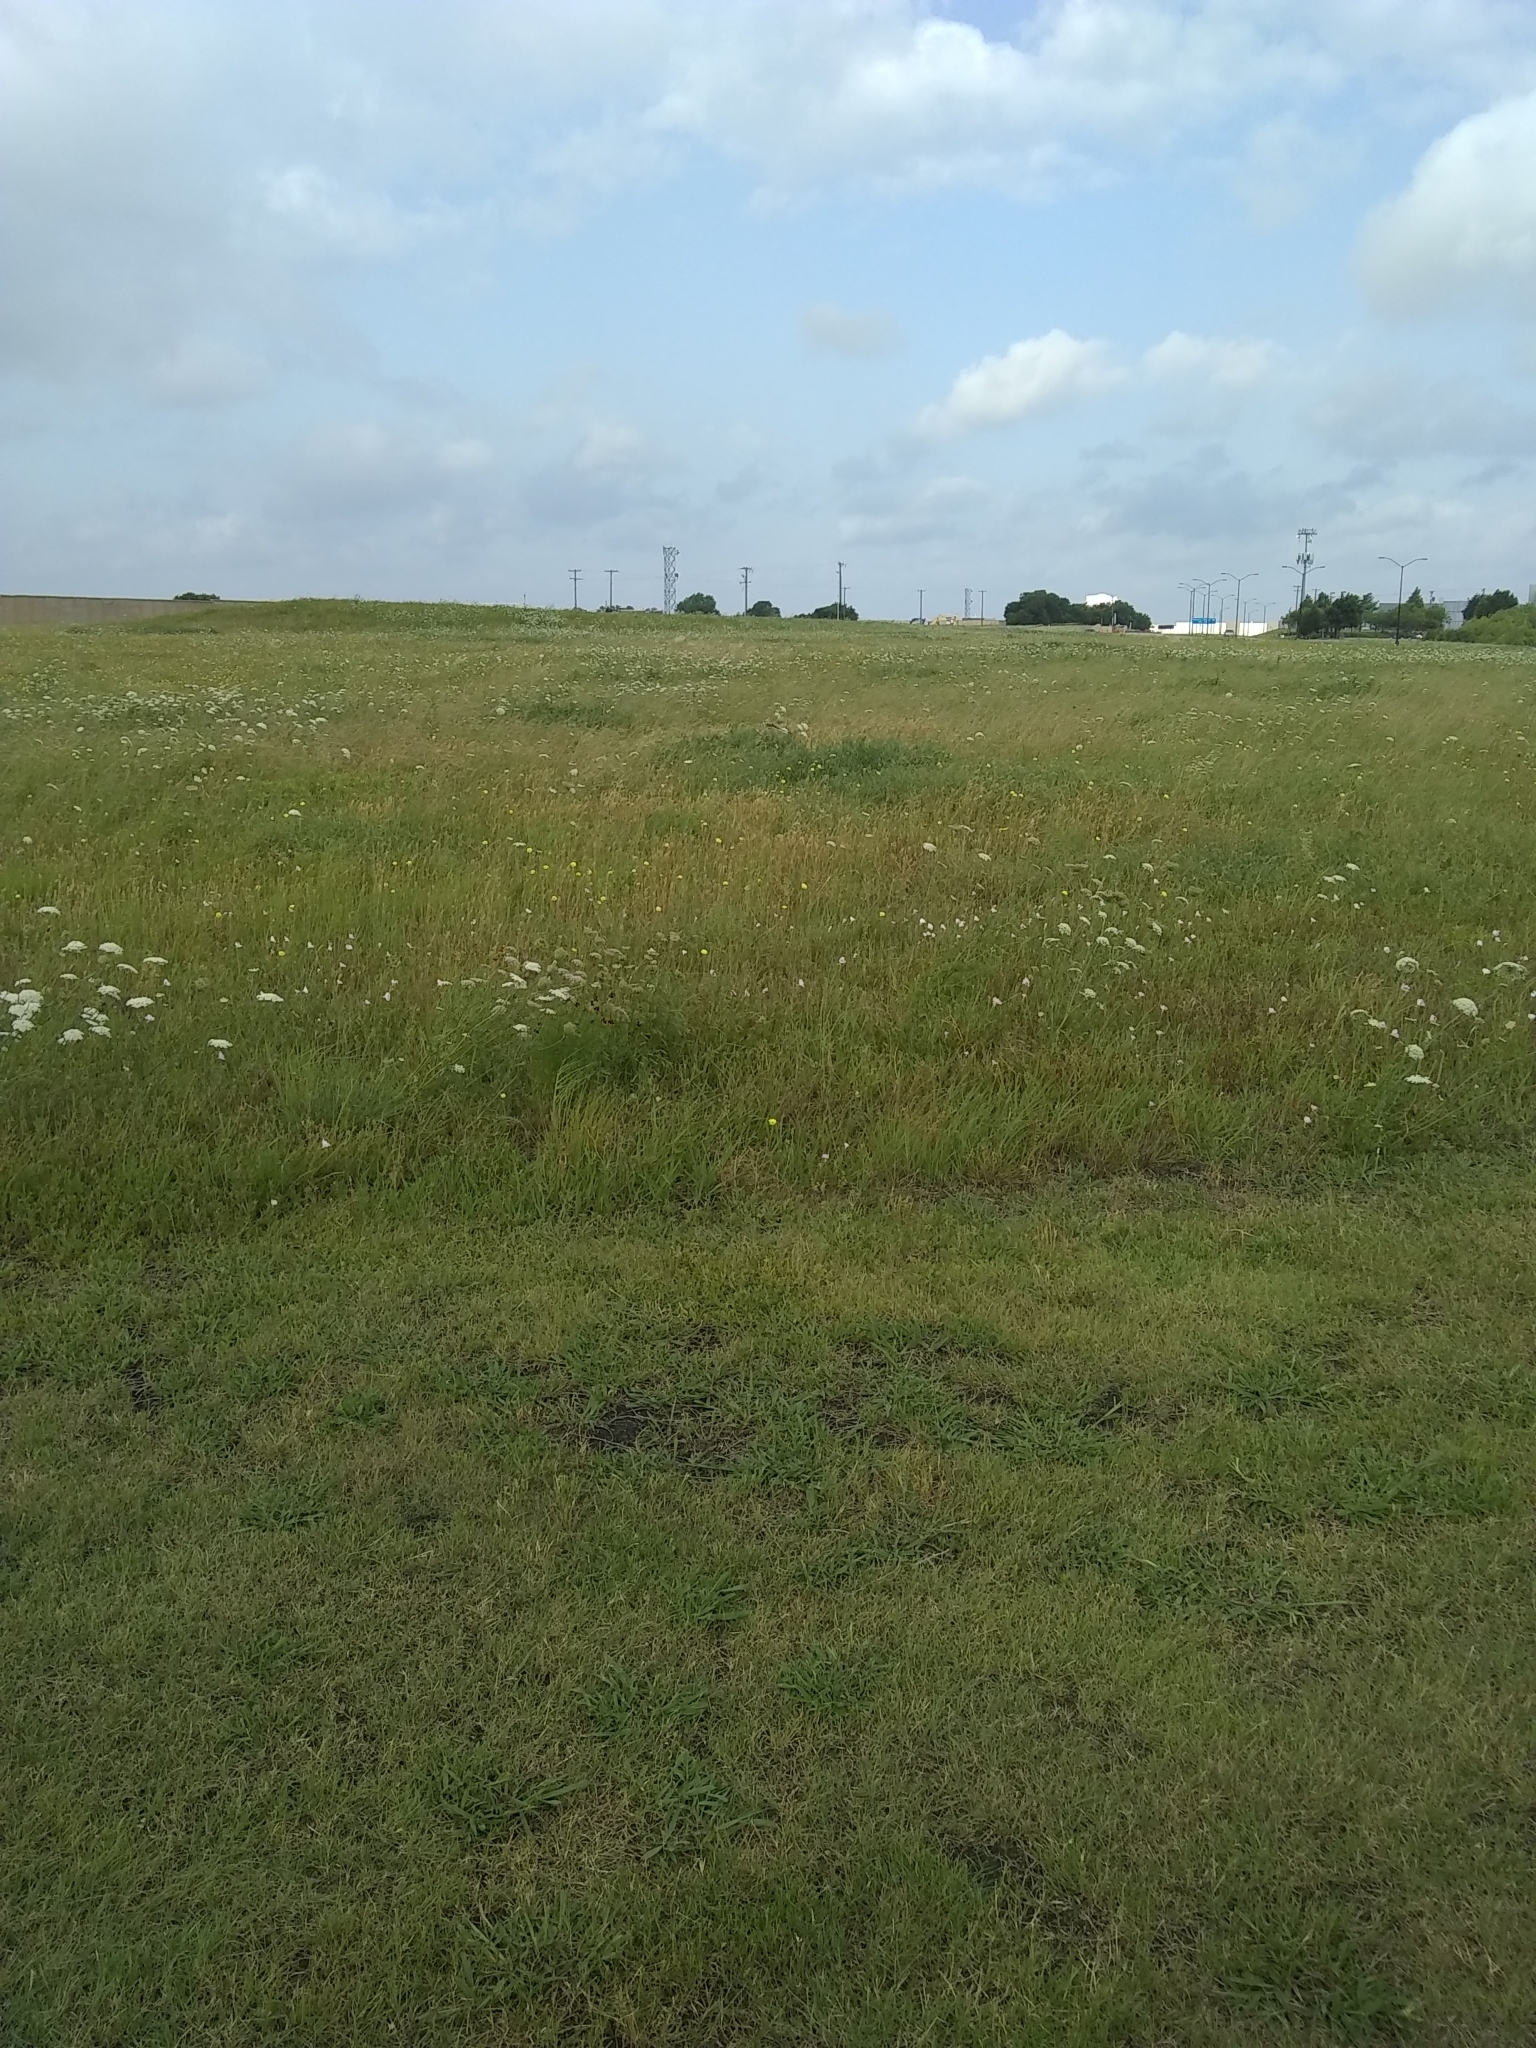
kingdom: Animalia
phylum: Chordata
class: Aves
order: Passeriformes
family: Tyrannidae
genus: Tyrannus
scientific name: Tyrannus forficatus
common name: Scissor-tailed flycatcher
